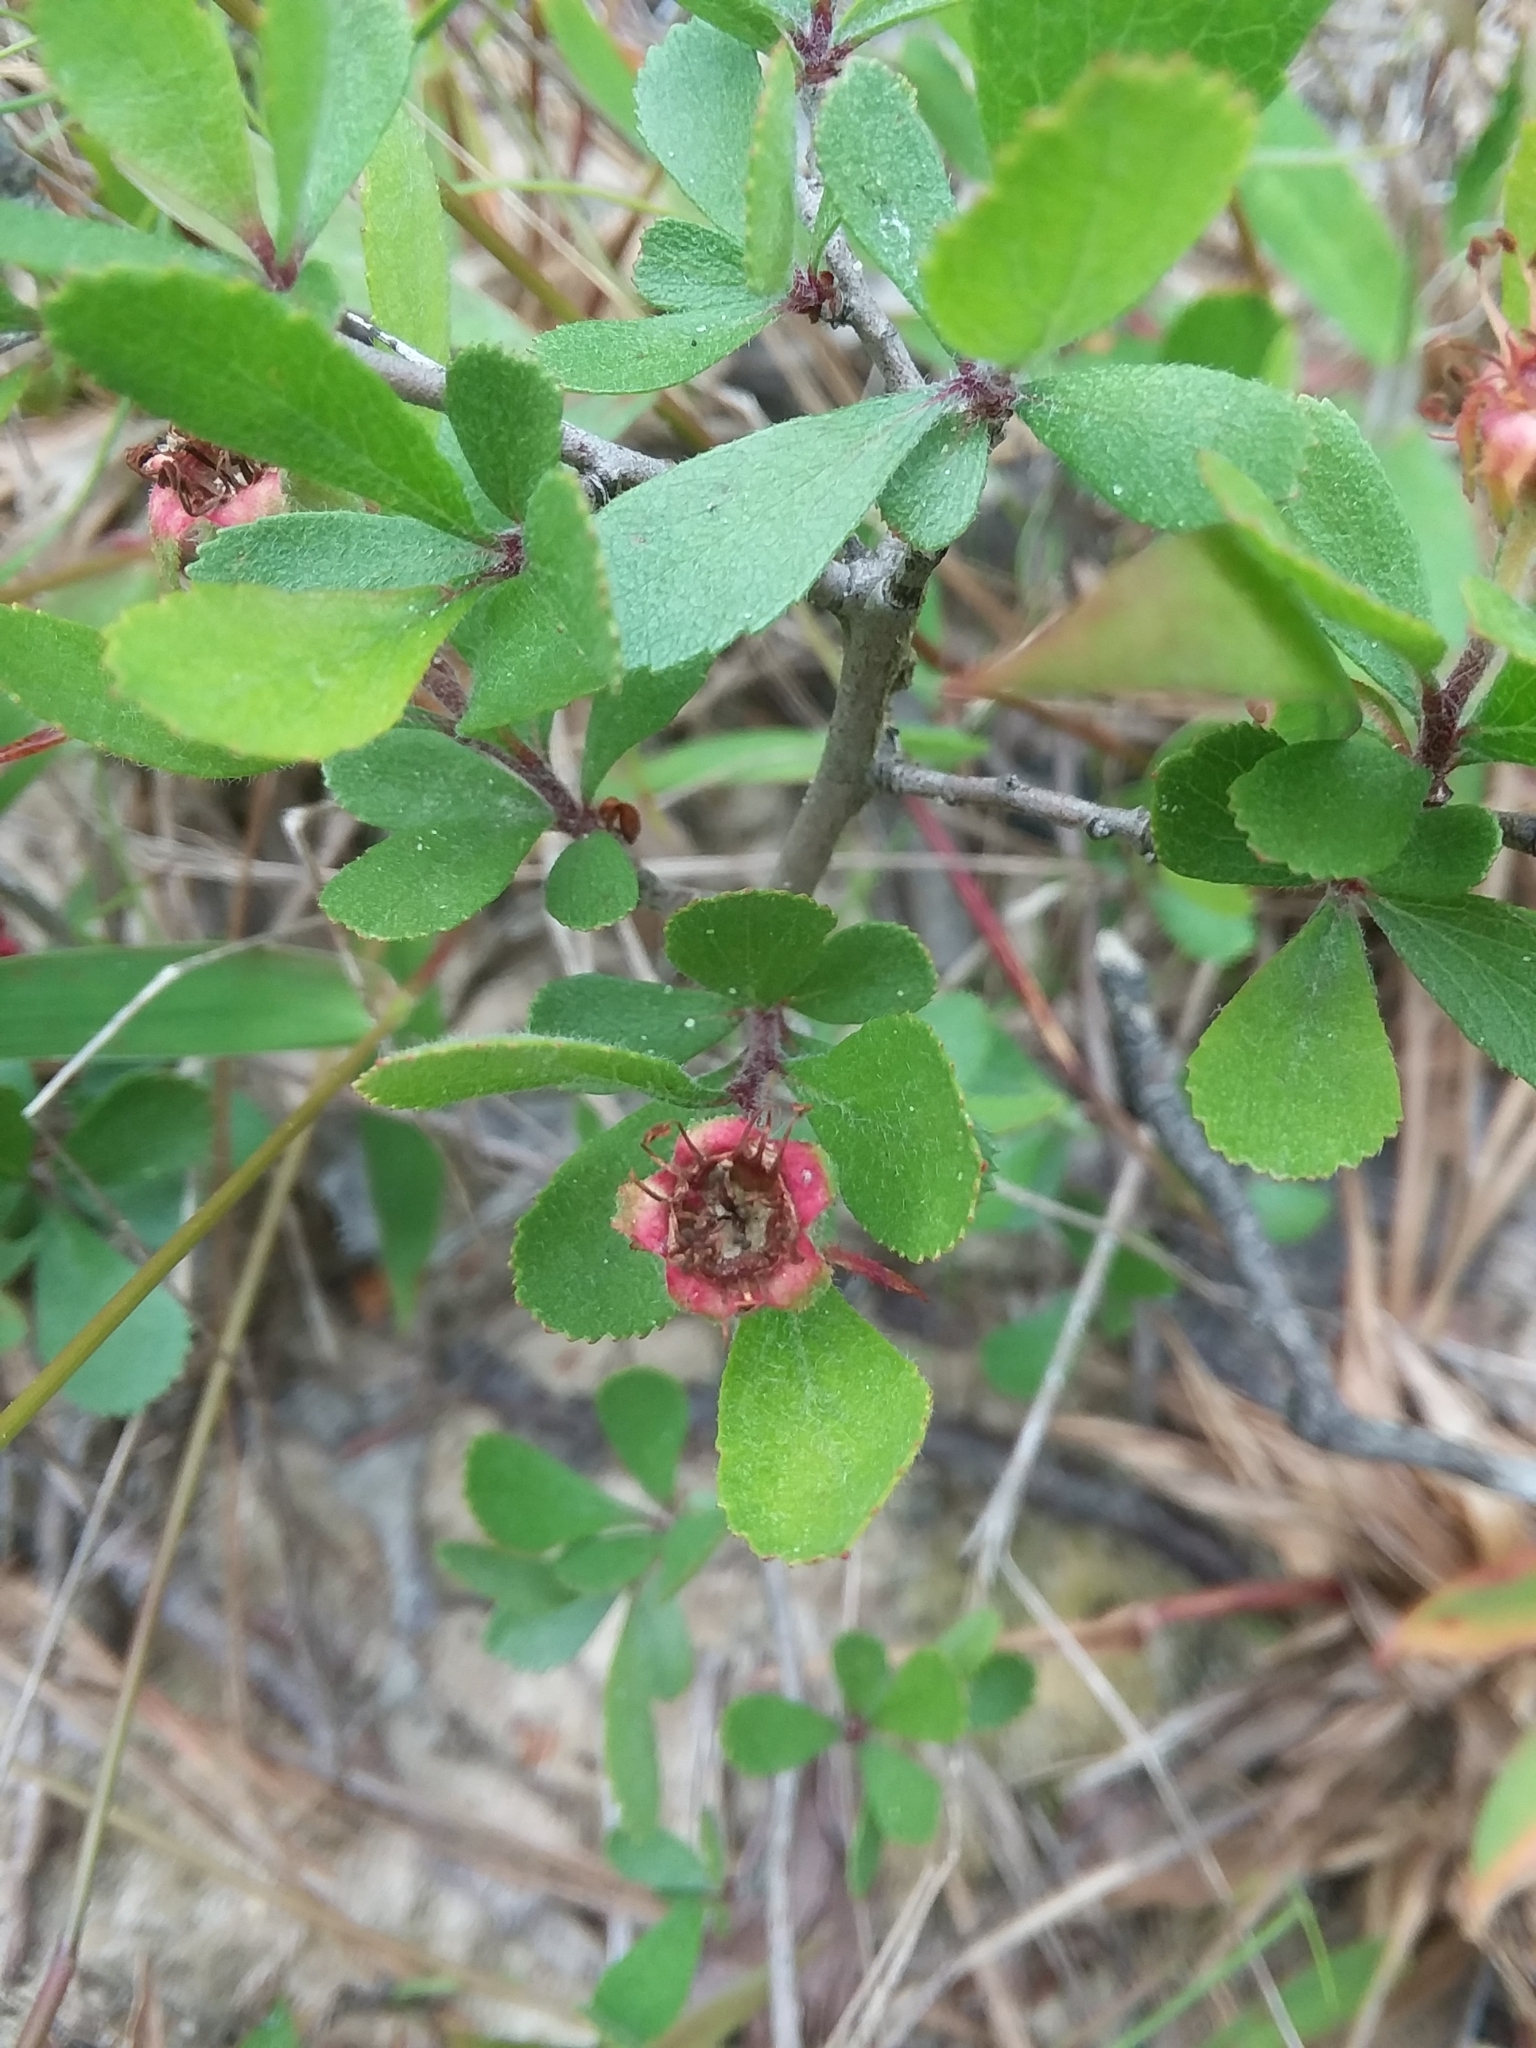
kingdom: Plantae
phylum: Tracheophyta
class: Magnoliopsida
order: Rosales
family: Rosaceae
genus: Crataegus
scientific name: Crataegus uniflora
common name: One-flower hawthorn
